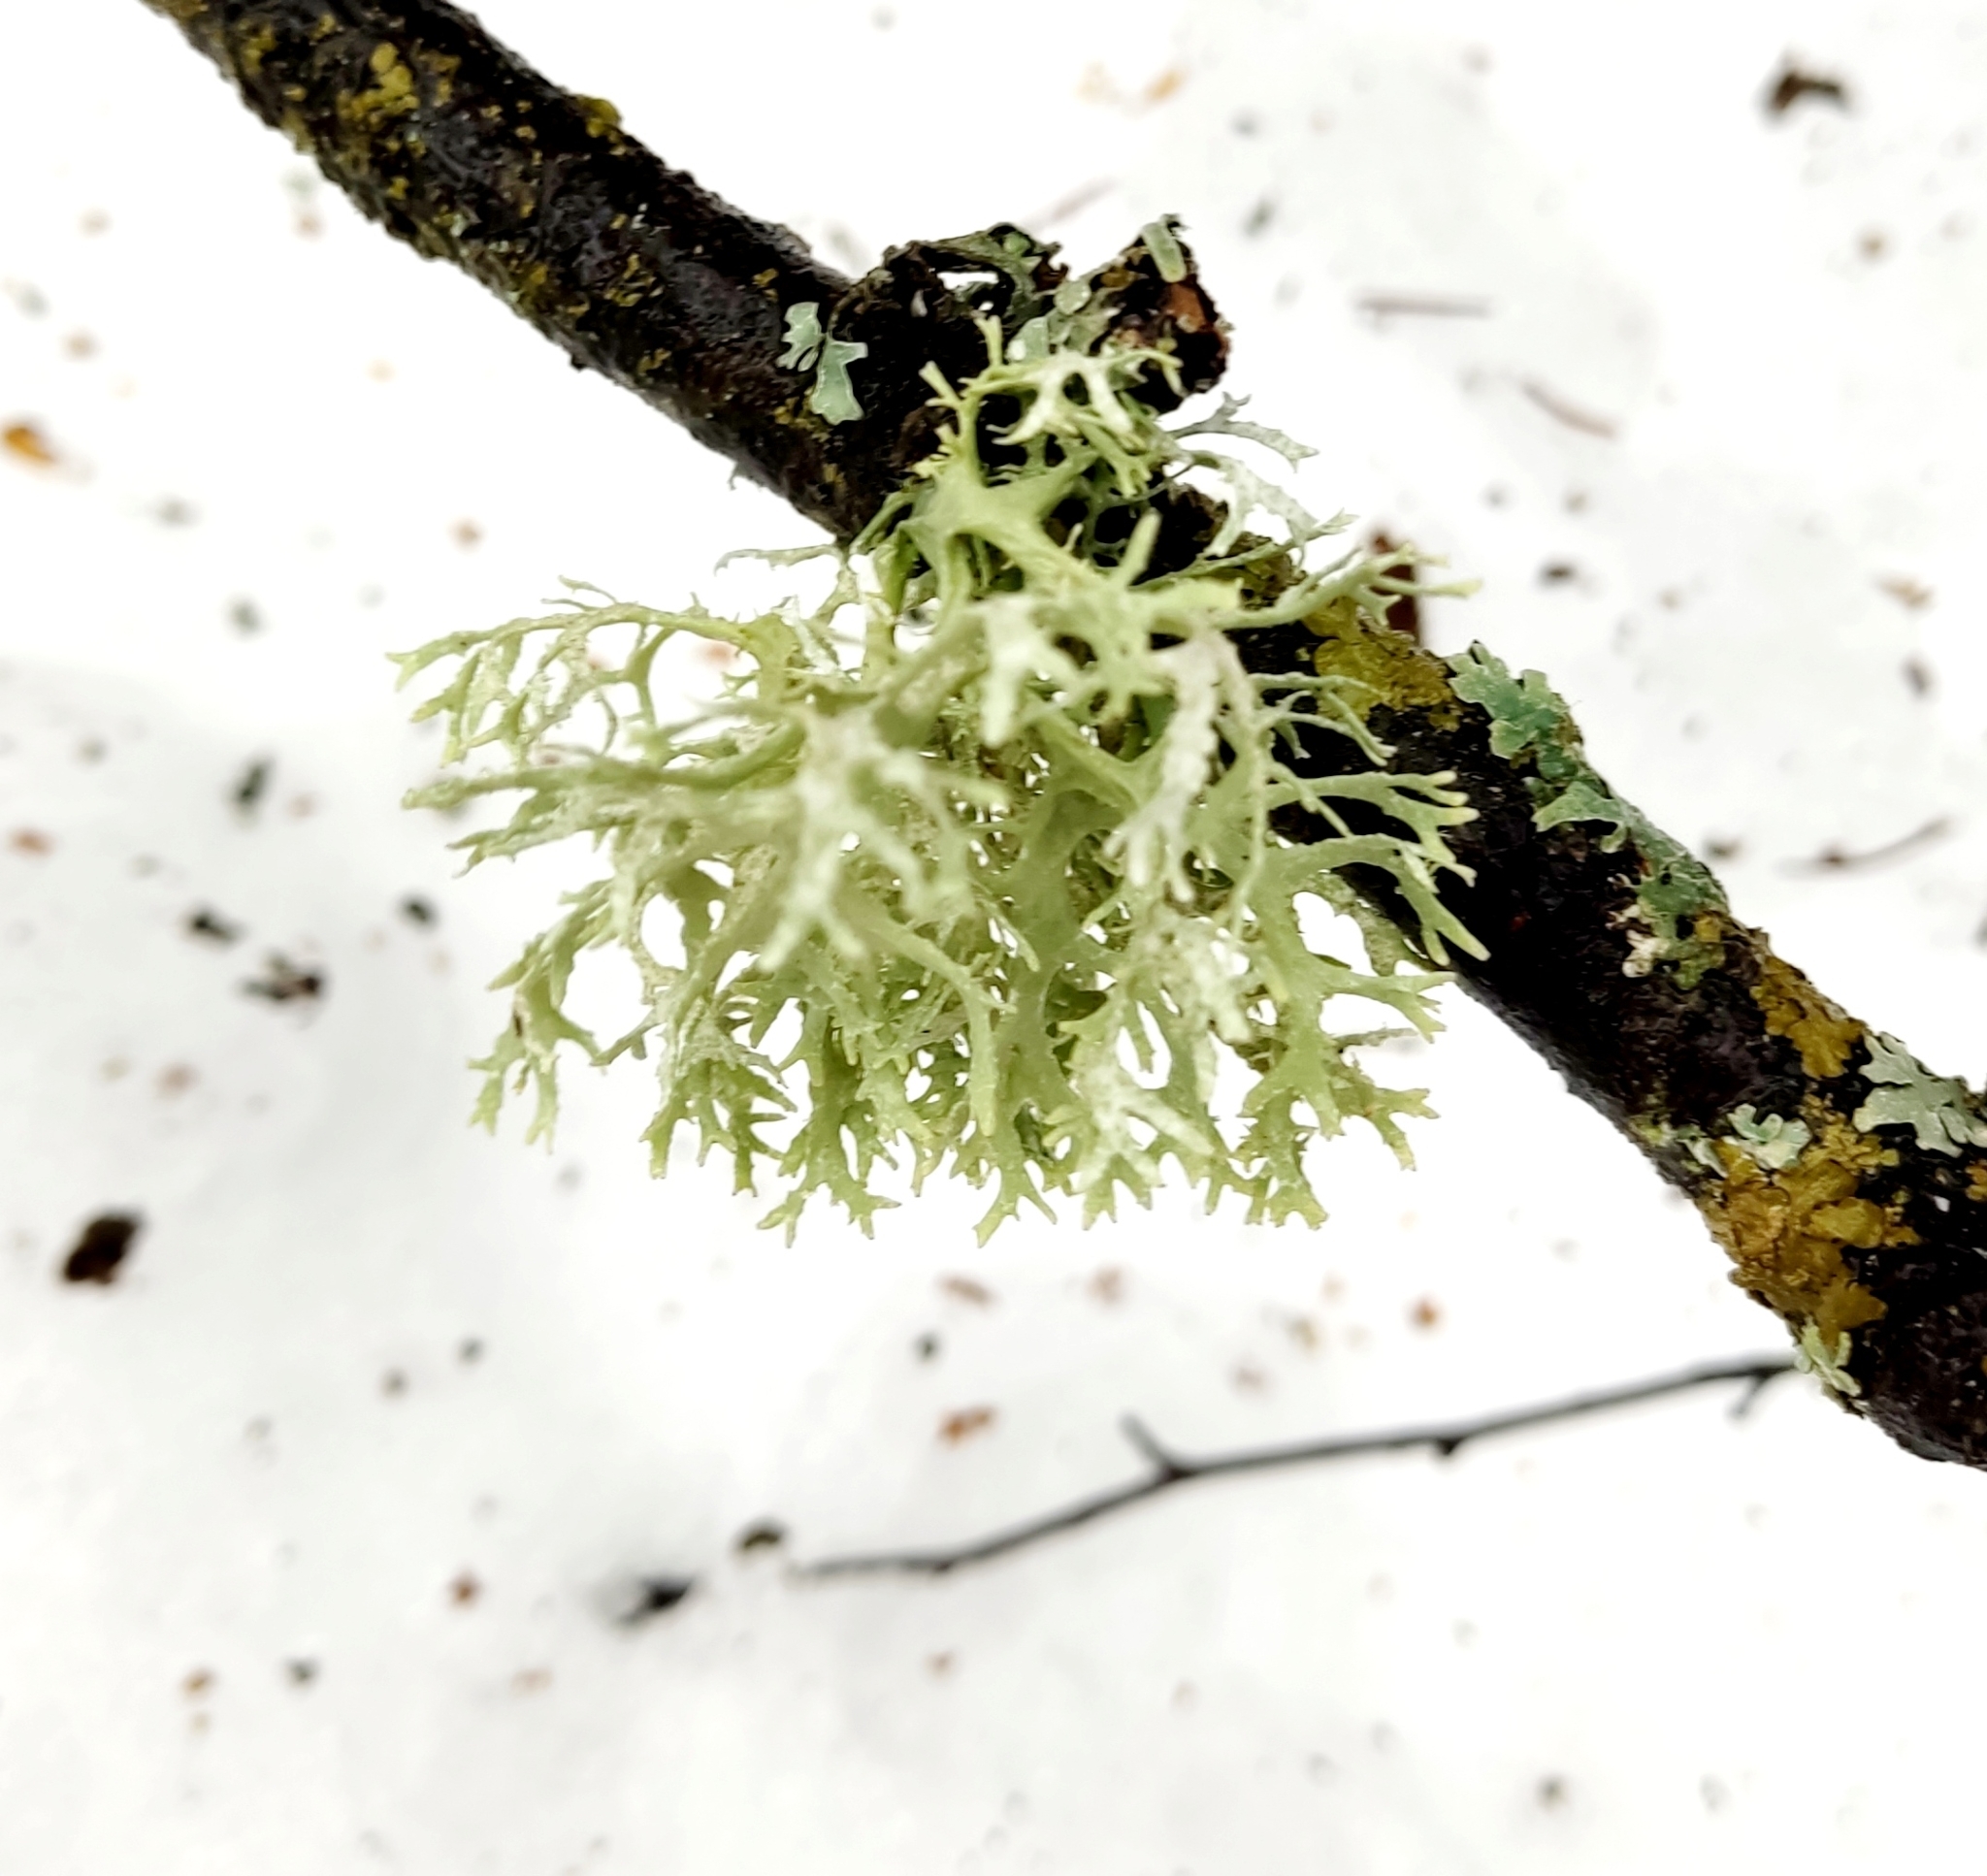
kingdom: Fungi
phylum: Ascomycota
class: Lecanoromycetes
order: Lecanorales
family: Parmeliaceae
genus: Evernia
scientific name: Evernia prunastri
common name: Oak moss
